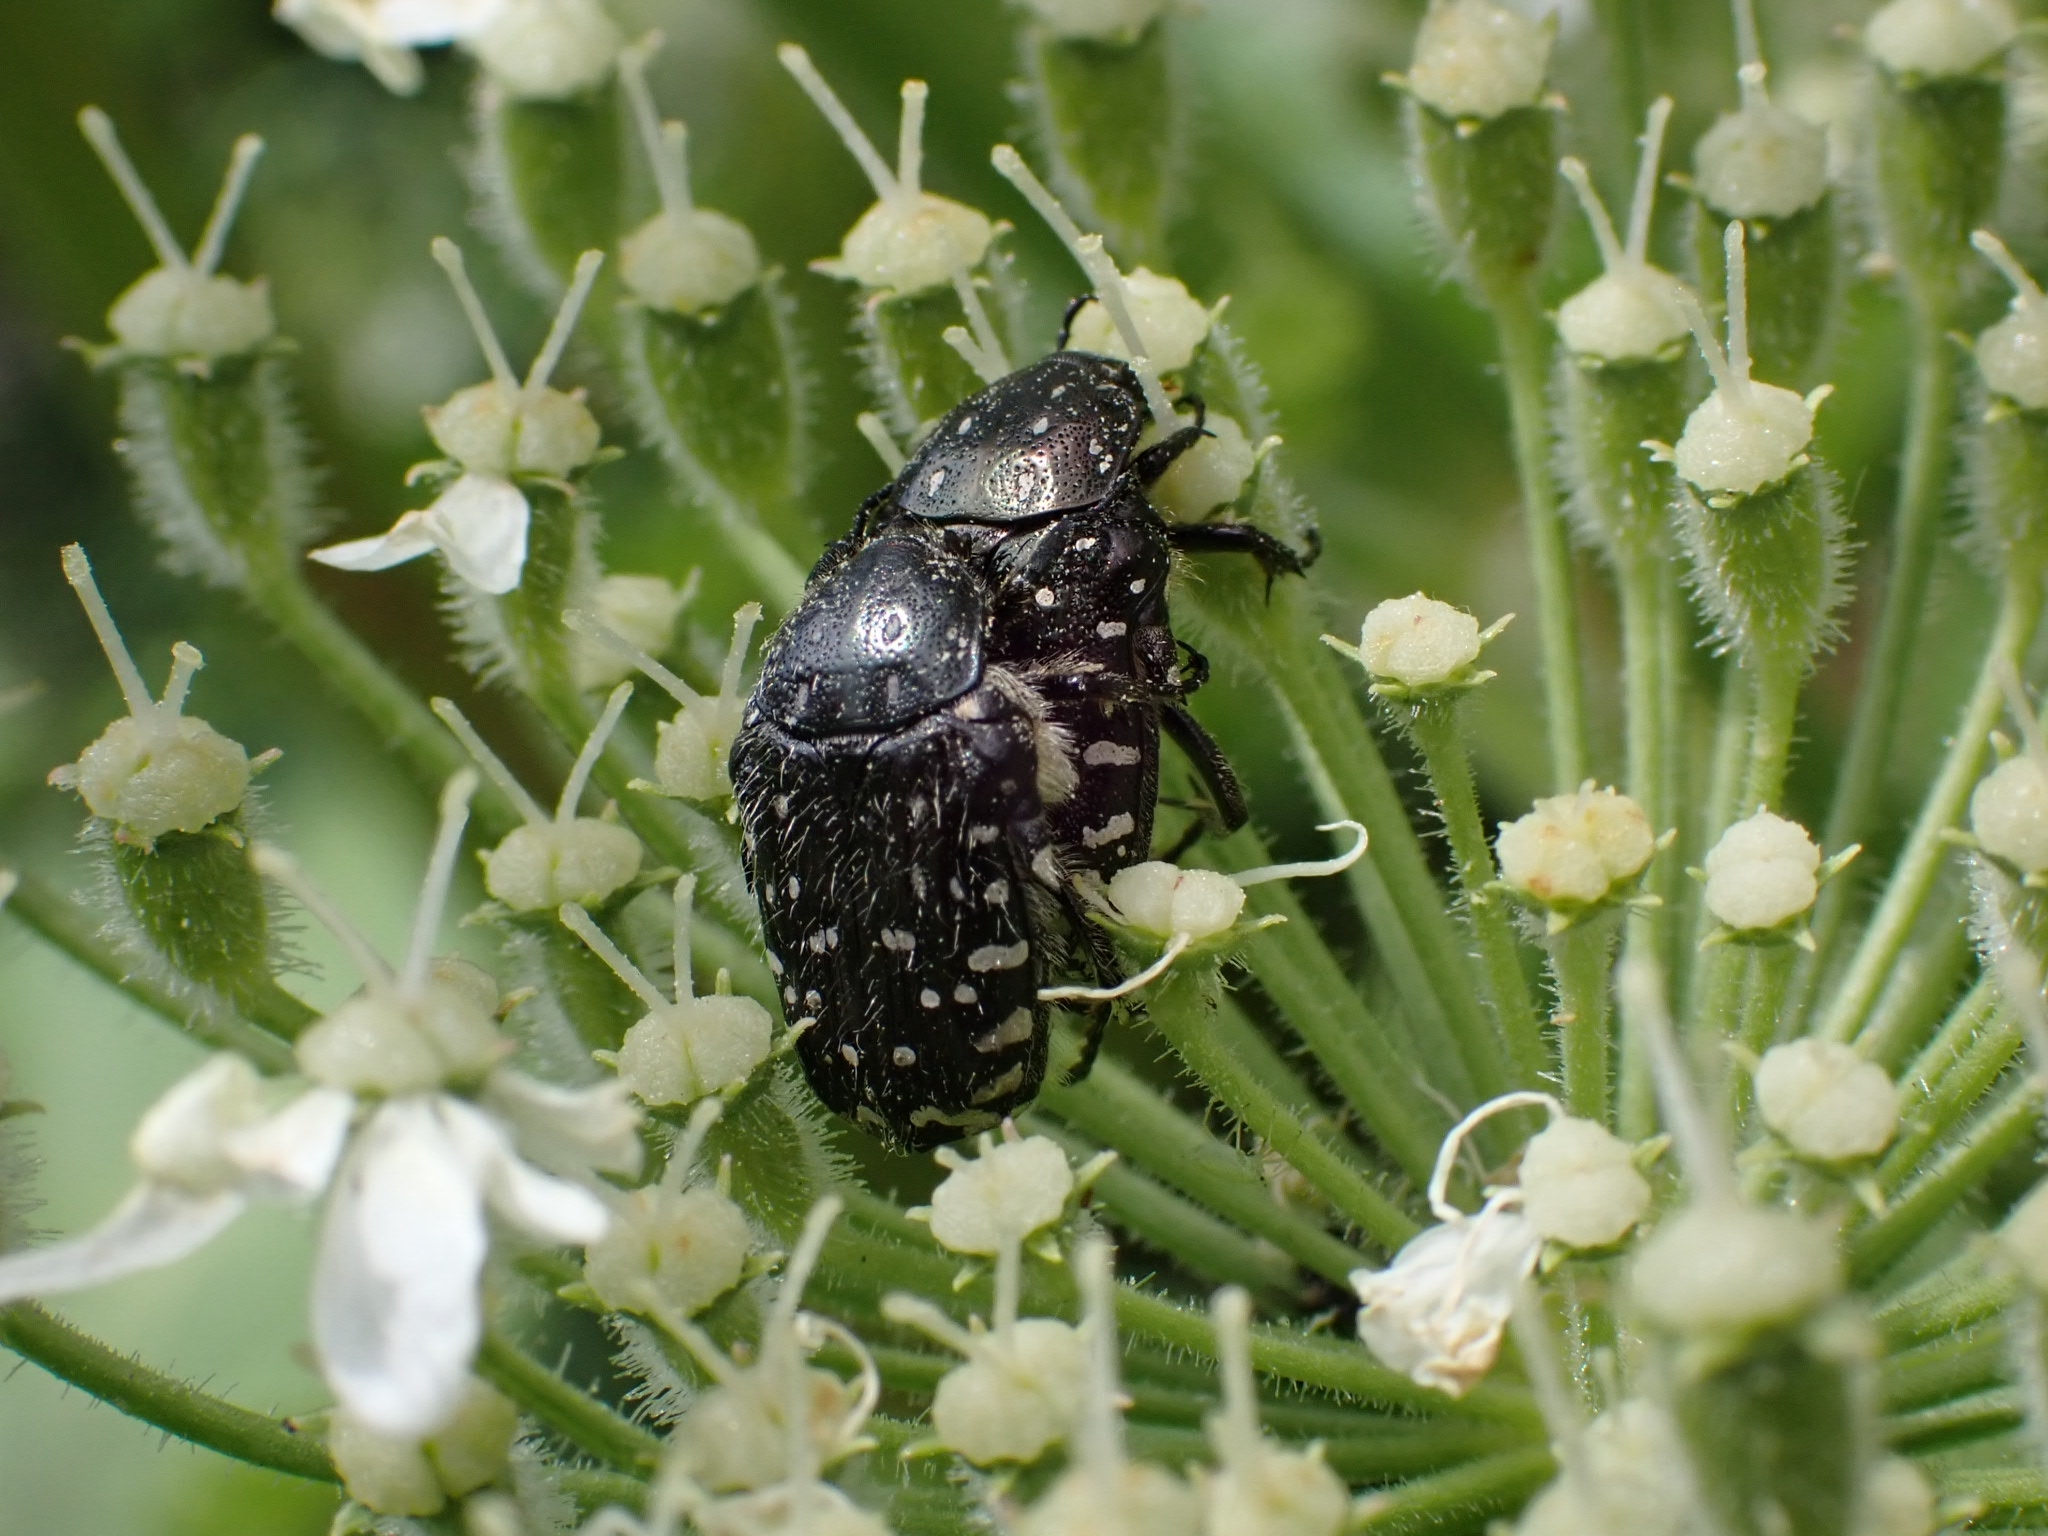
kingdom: Animalia
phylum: Arthropoda
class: Insecta
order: Coleoptera
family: Scarabaeidae
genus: Oxythyrea
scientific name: Oxythyrea funesta
